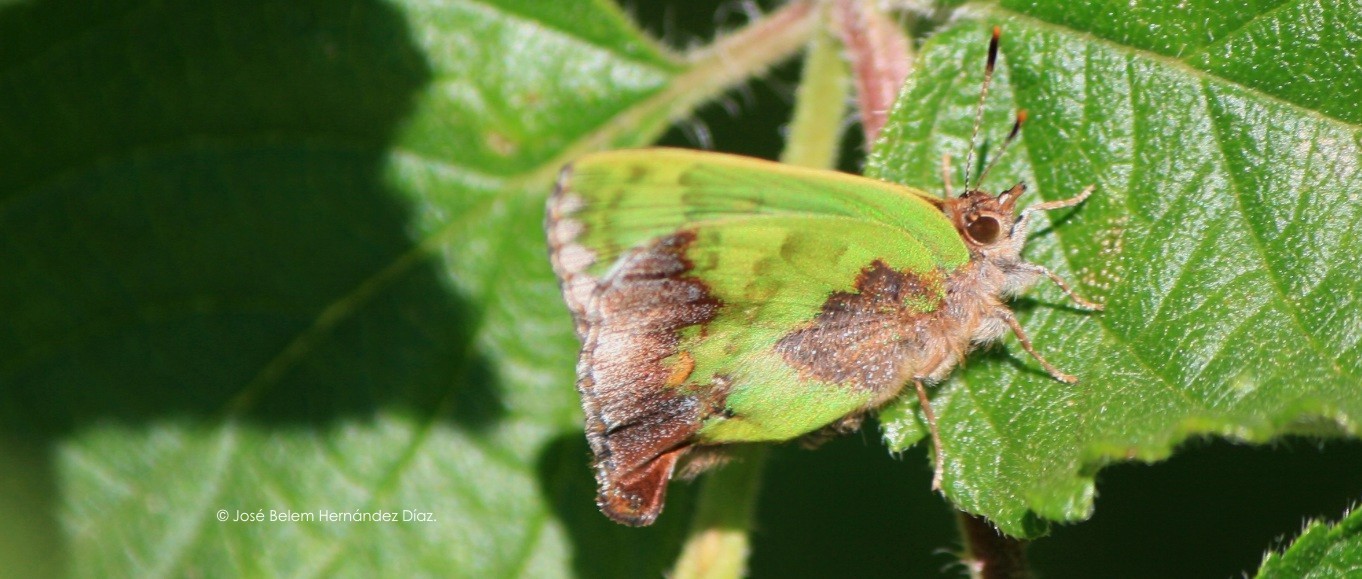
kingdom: Animalia
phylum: Arthropoda
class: Insecta
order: Lepidoptera
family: Lycaenidae
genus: Cyanophrys
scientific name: Cyanophrys agricolor
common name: Stained greenstreak
